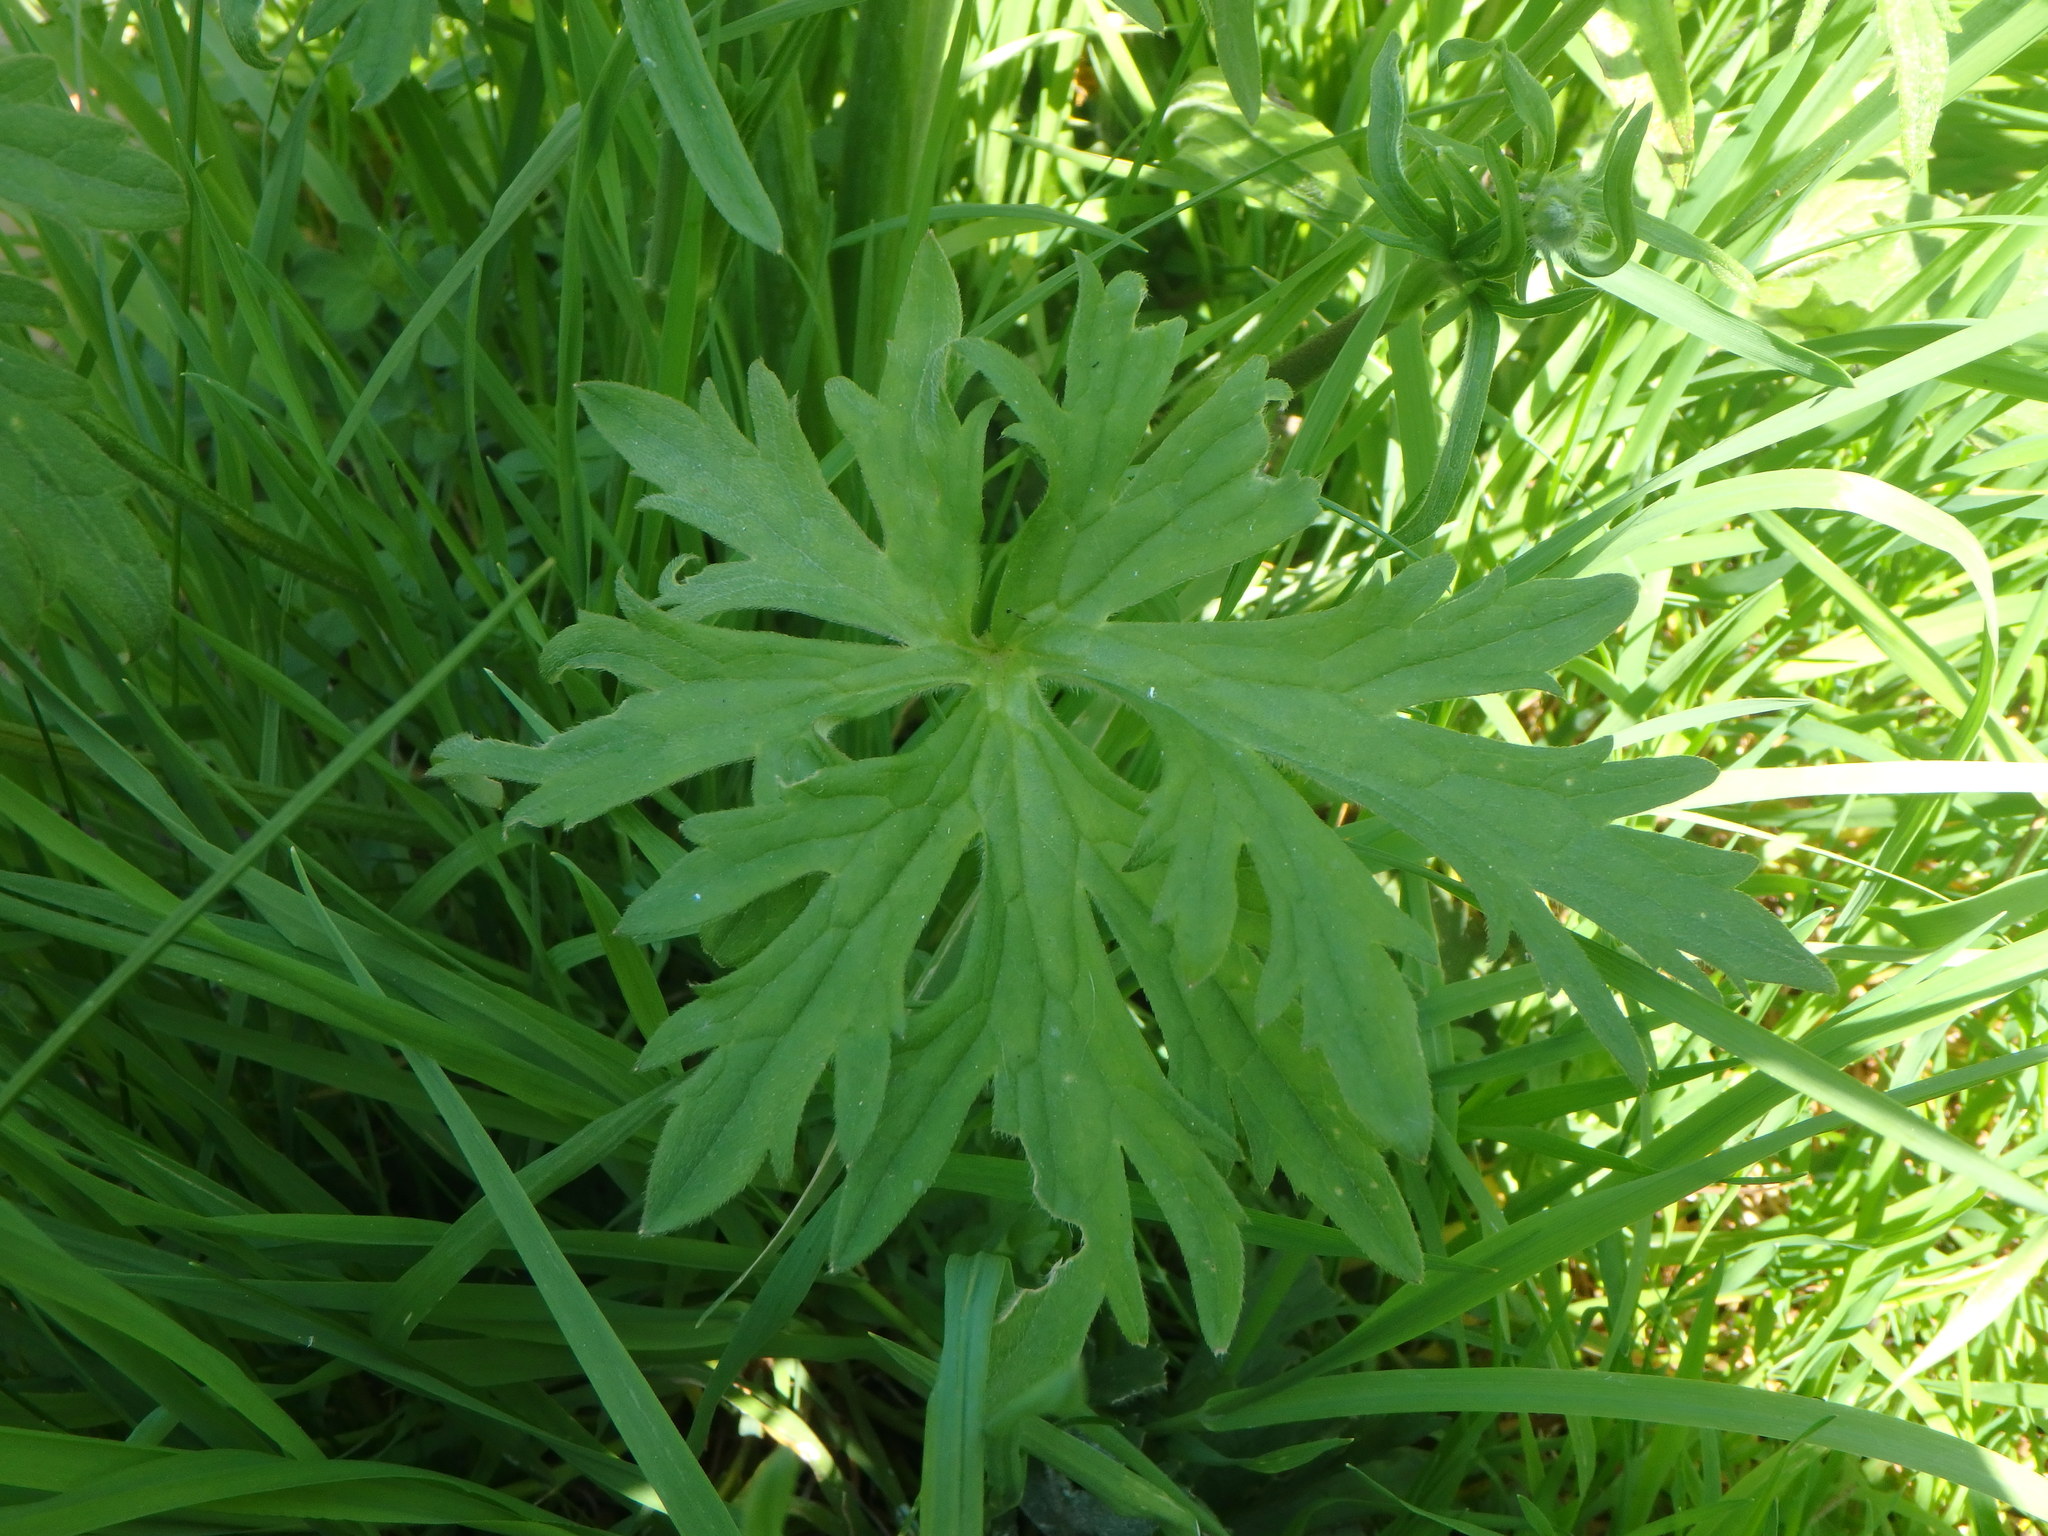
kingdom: Plantae
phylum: Tracheophyta
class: Magnoliopsida
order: Ranunculales
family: Ranunculaceae
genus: Ranunculus
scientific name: Ranunculus acris
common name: Meadow buttercup
